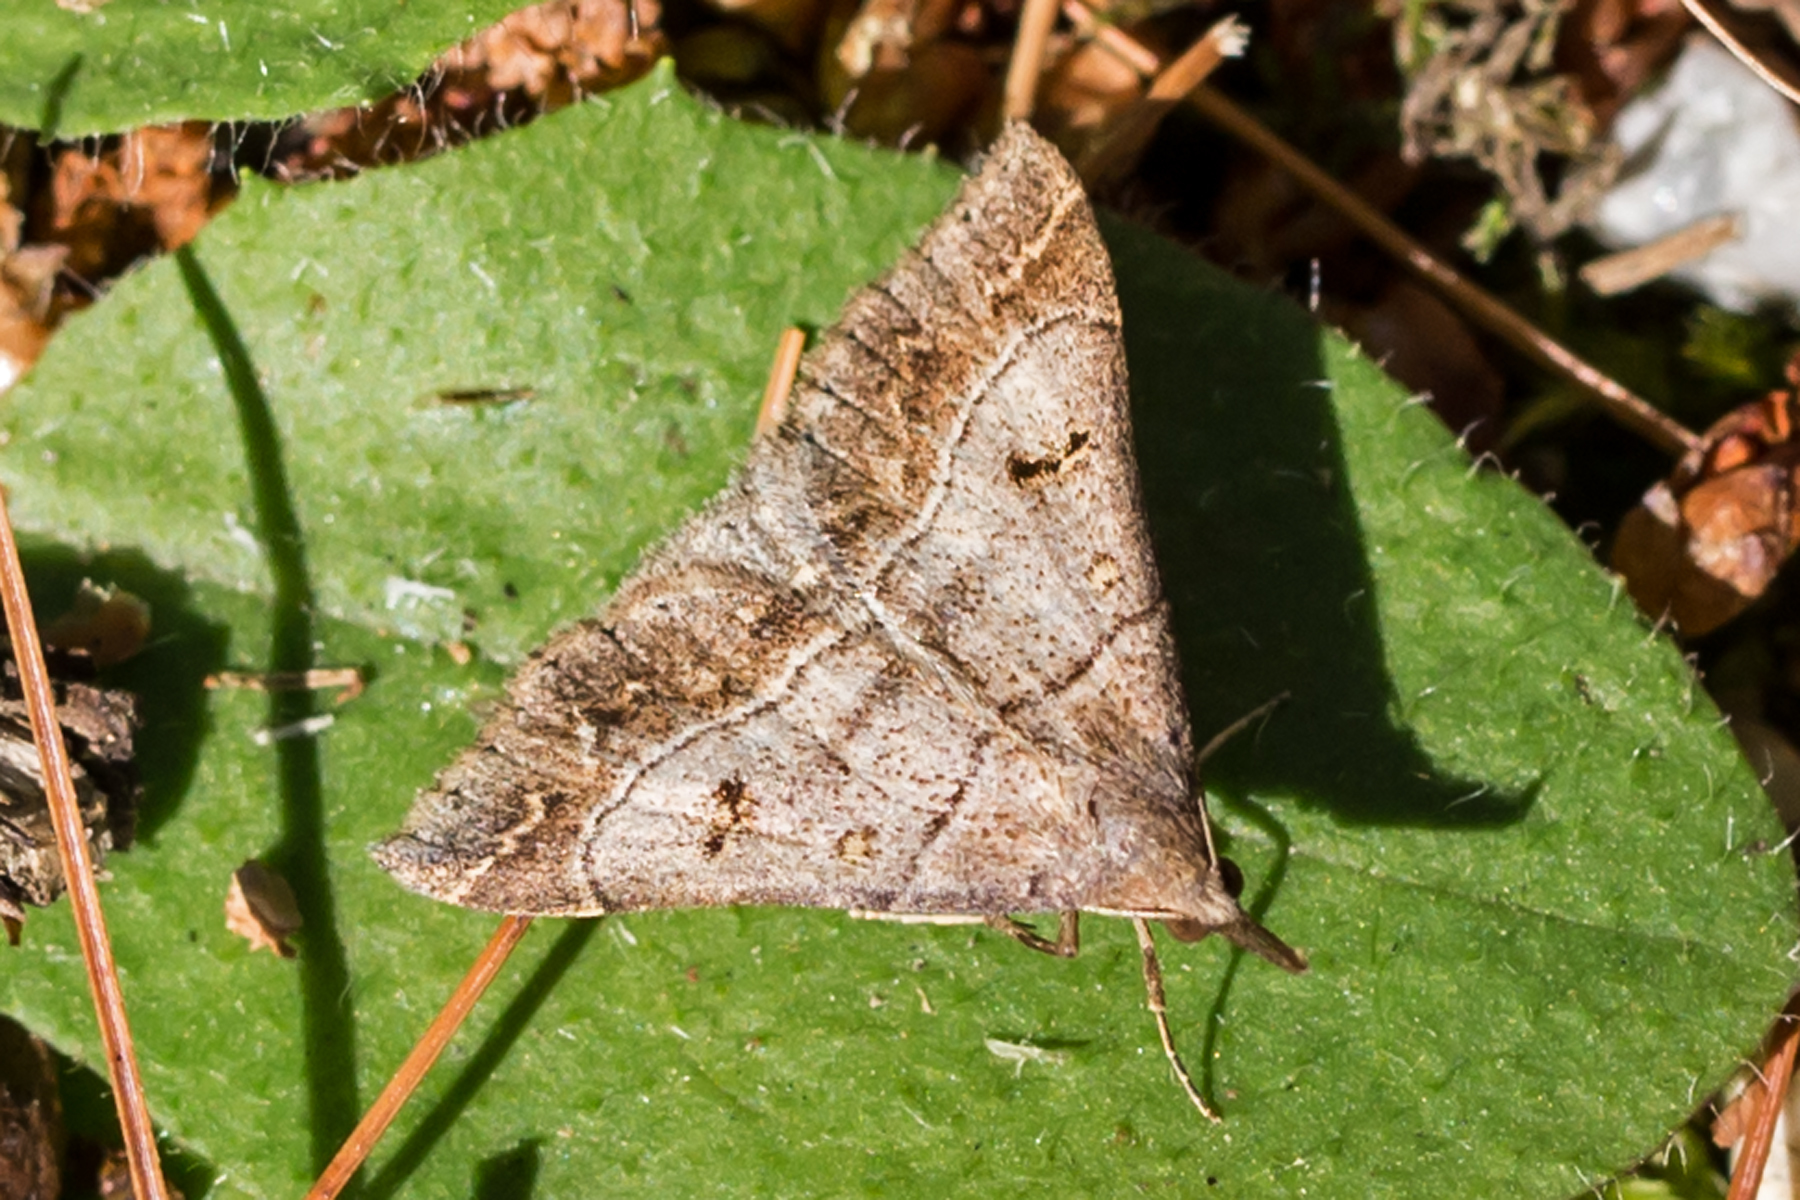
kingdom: Animalia
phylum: Arthropoda
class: Insecta
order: Lepidoptera
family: Erebidae
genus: Renia
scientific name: Renia flavipunctalis
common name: Yellow-spotted renia moth
